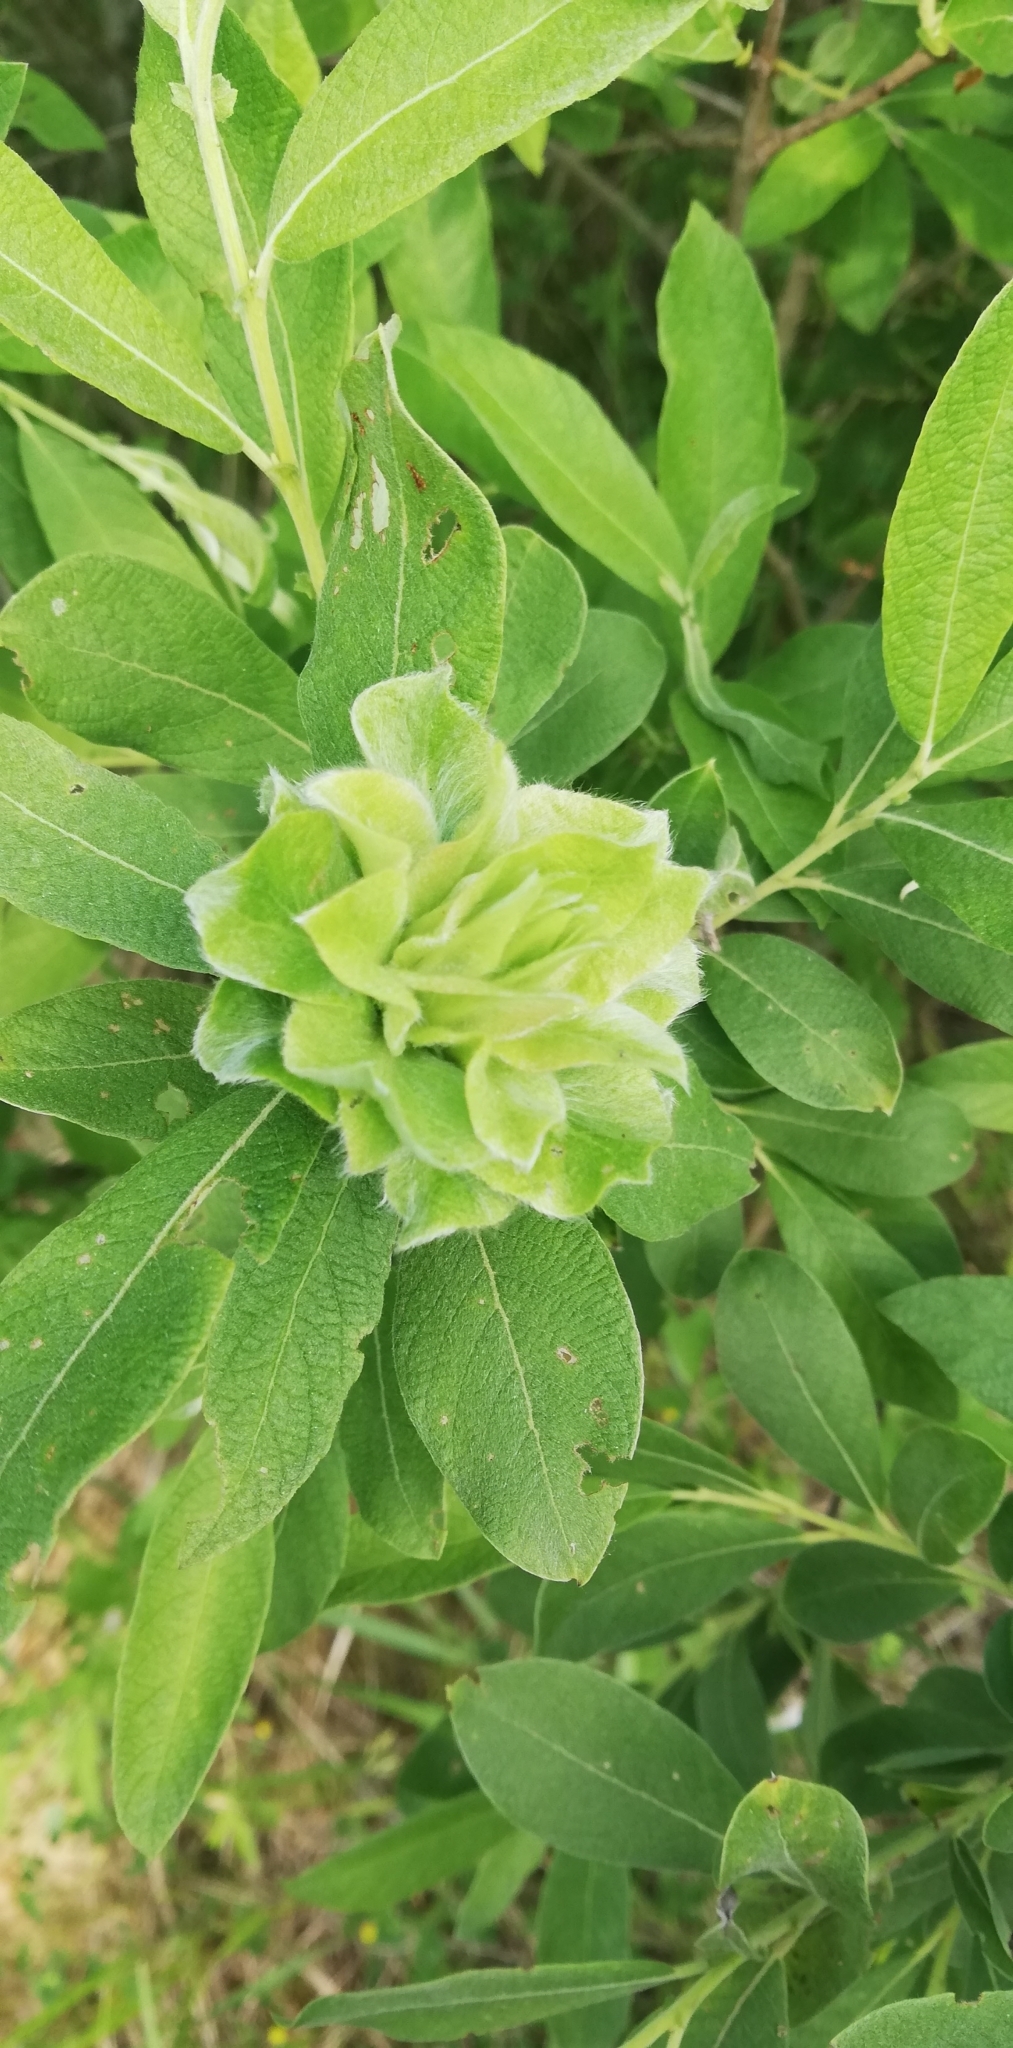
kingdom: Plantae
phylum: Tracheophyta
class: Magnoliopsida
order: Malpighiales
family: Salicaceae
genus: Salix
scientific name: Salix cinerea
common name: Common sallow
